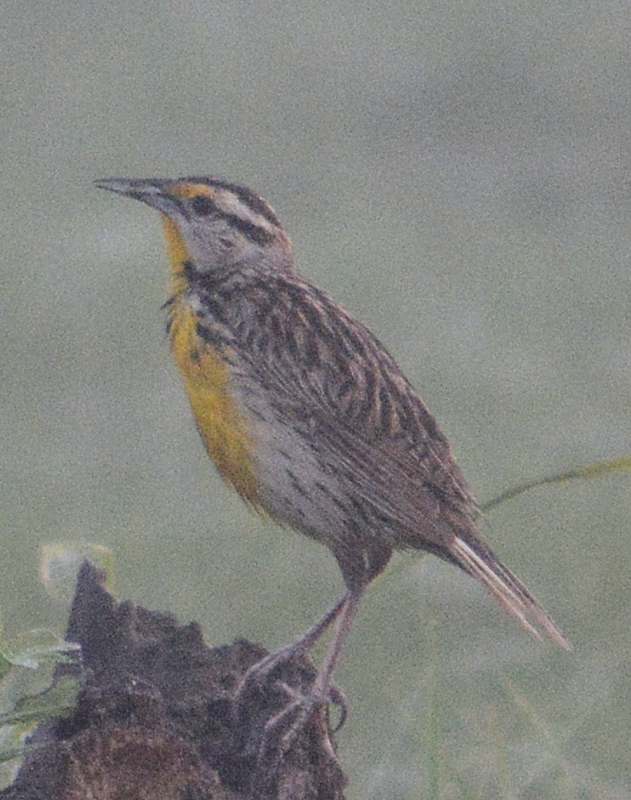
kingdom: Animalia
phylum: Chordata
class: Aves
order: Passeriformes
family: Icteridae
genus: Sturnella
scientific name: Sturnella magna
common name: Eastern meadowlark
